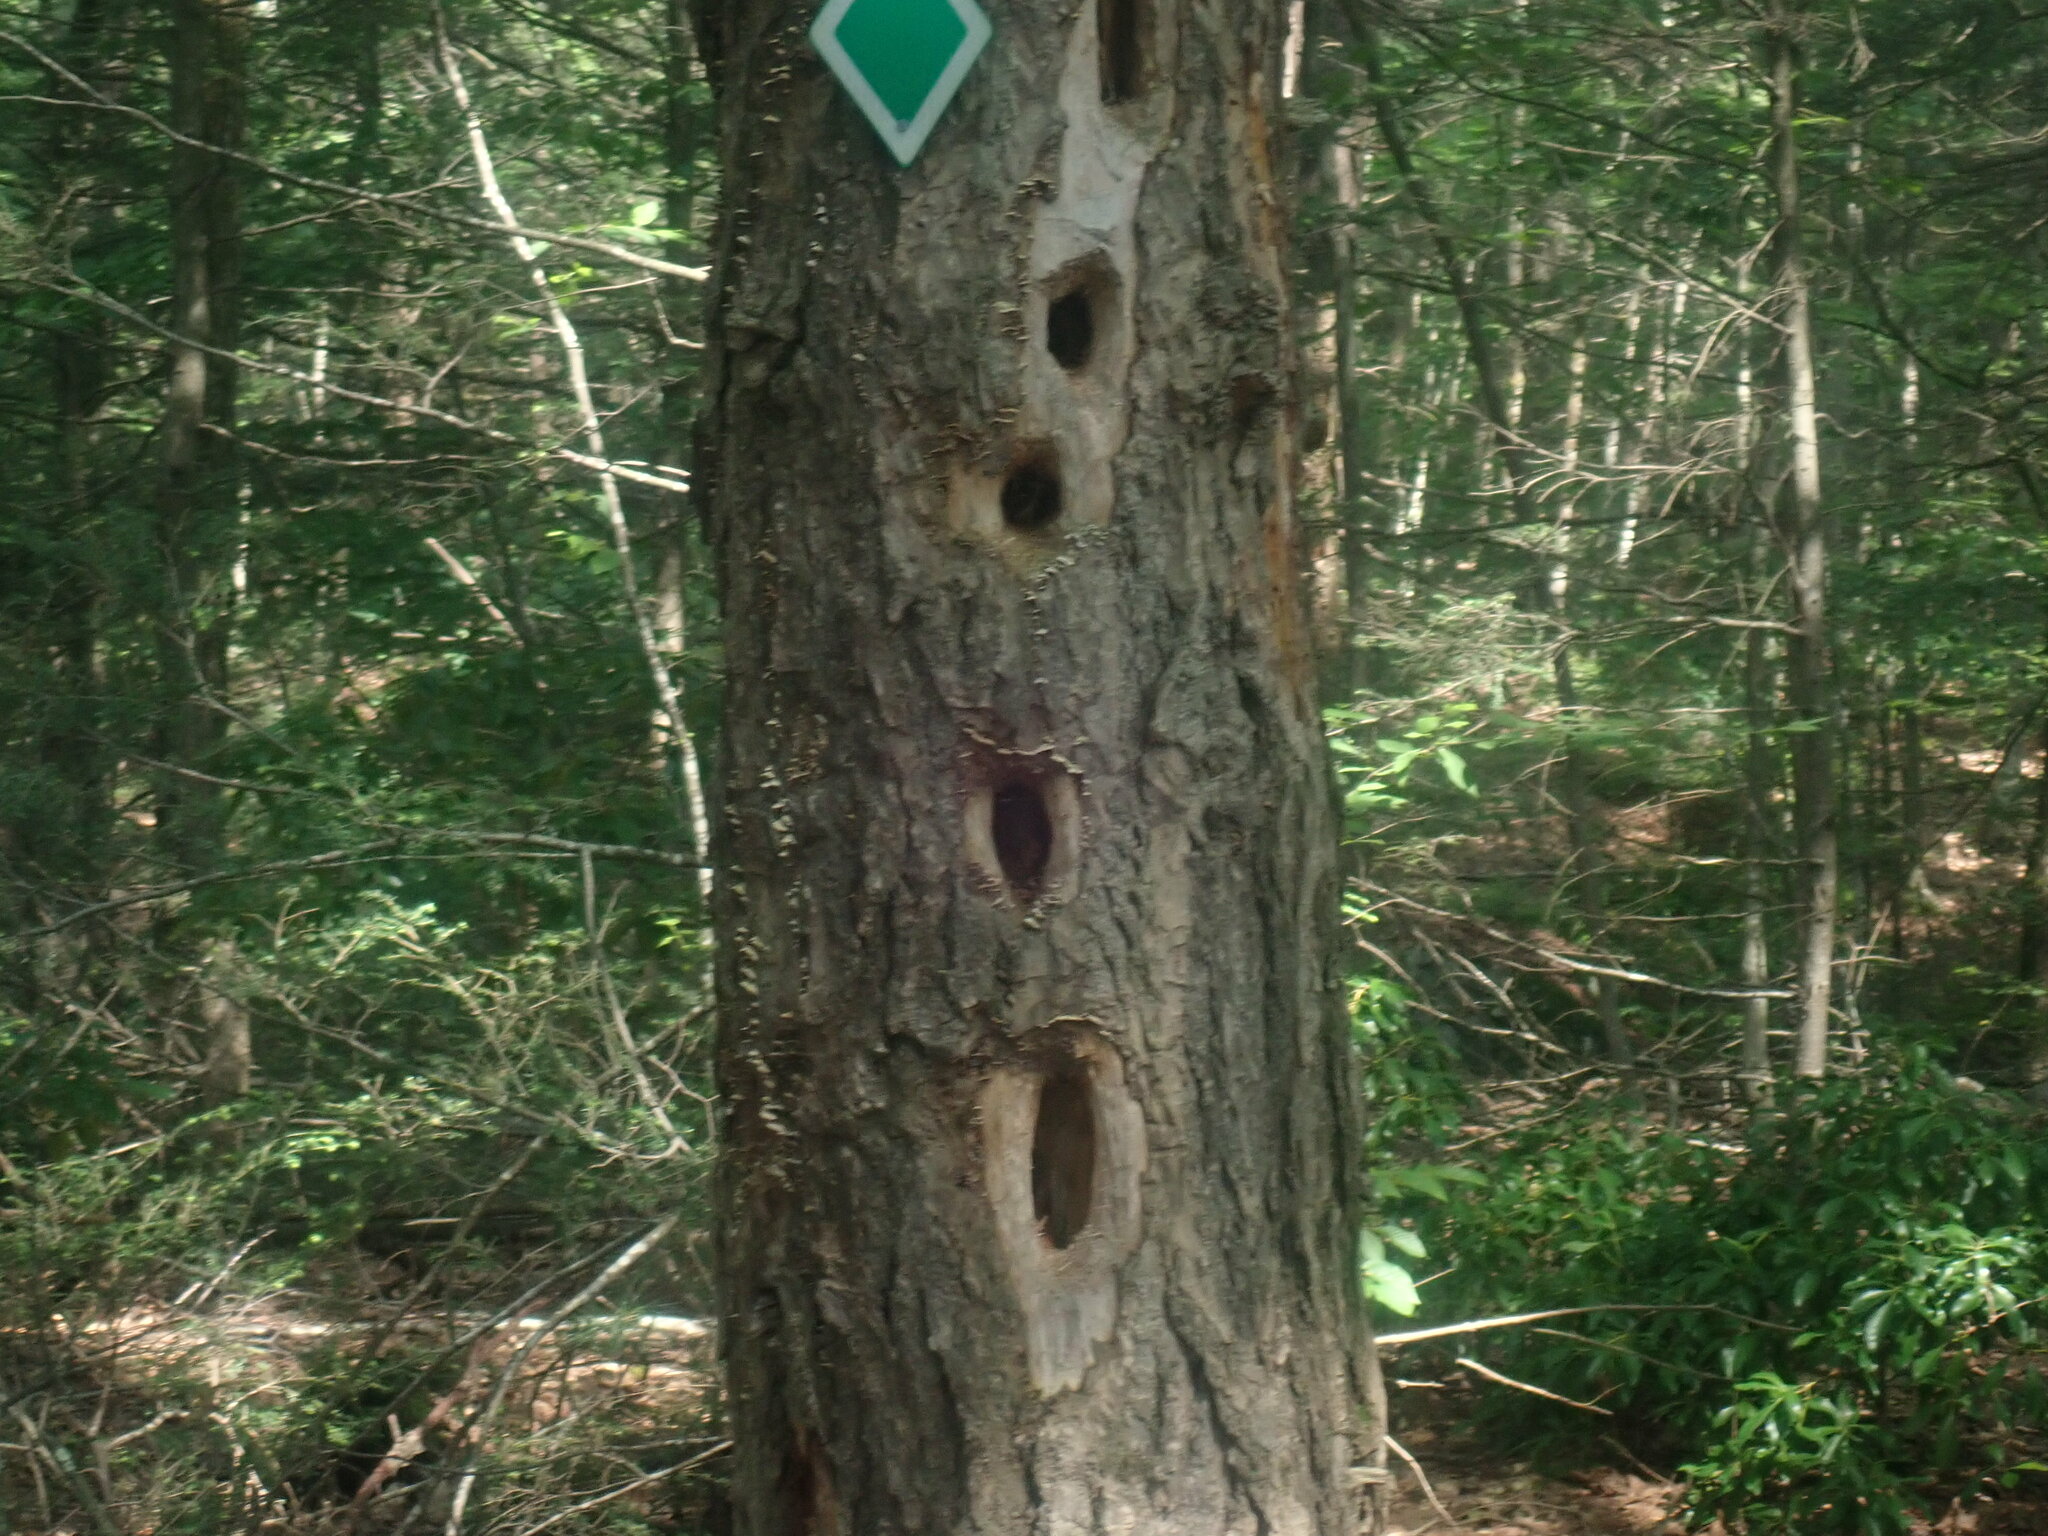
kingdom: Animalia
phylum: Chordata
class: Aves
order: Piciformes
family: Picidae
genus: Dryocopus
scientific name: Dryocopus pileatus
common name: Pileated woodpecker
